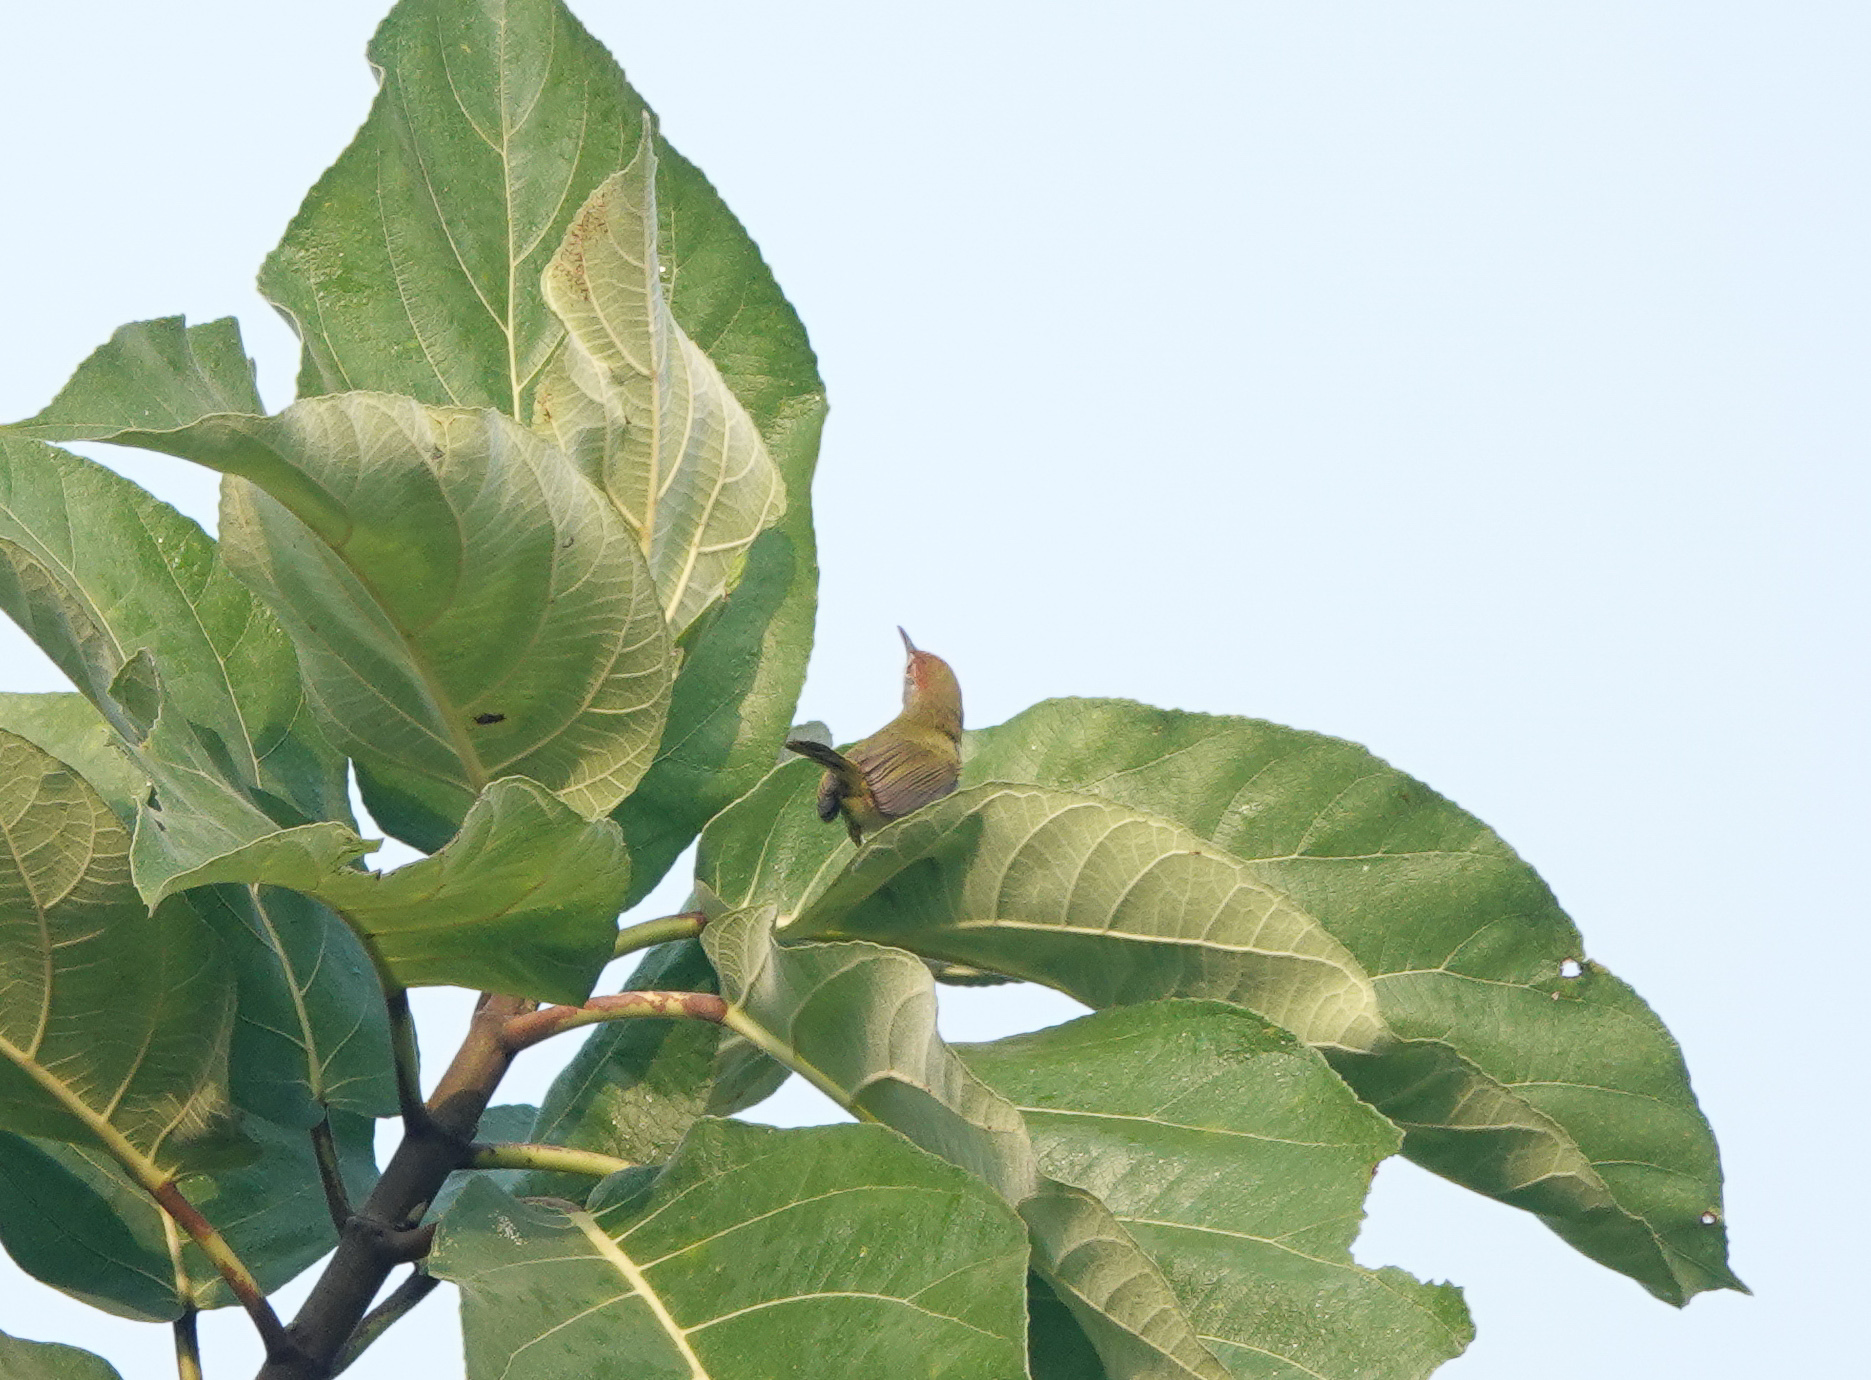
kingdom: Animalia
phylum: Chordata
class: Aves
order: Passeriformes
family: Cisticolidae
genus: Orthotomus
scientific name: Orthotomus atrogularis
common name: Dark-necked tailorbird
